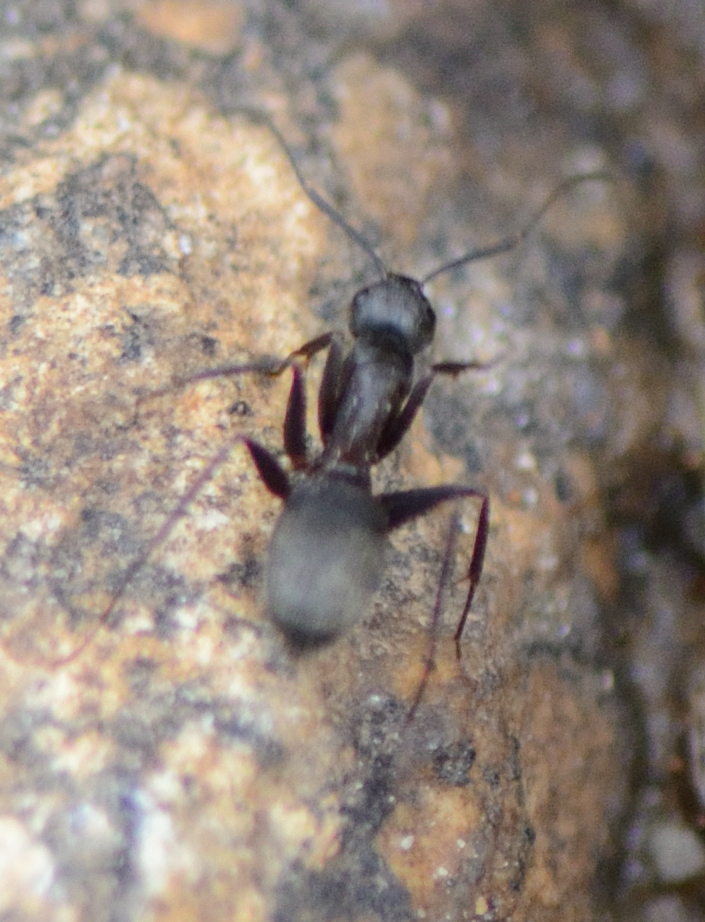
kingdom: Animalia
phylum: Arthropoda
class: Insecta
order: Hymenoptera
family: Formicidae
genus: Camponotus
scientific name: Camponotus pennsylvanicus
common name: Black carpenter ant
